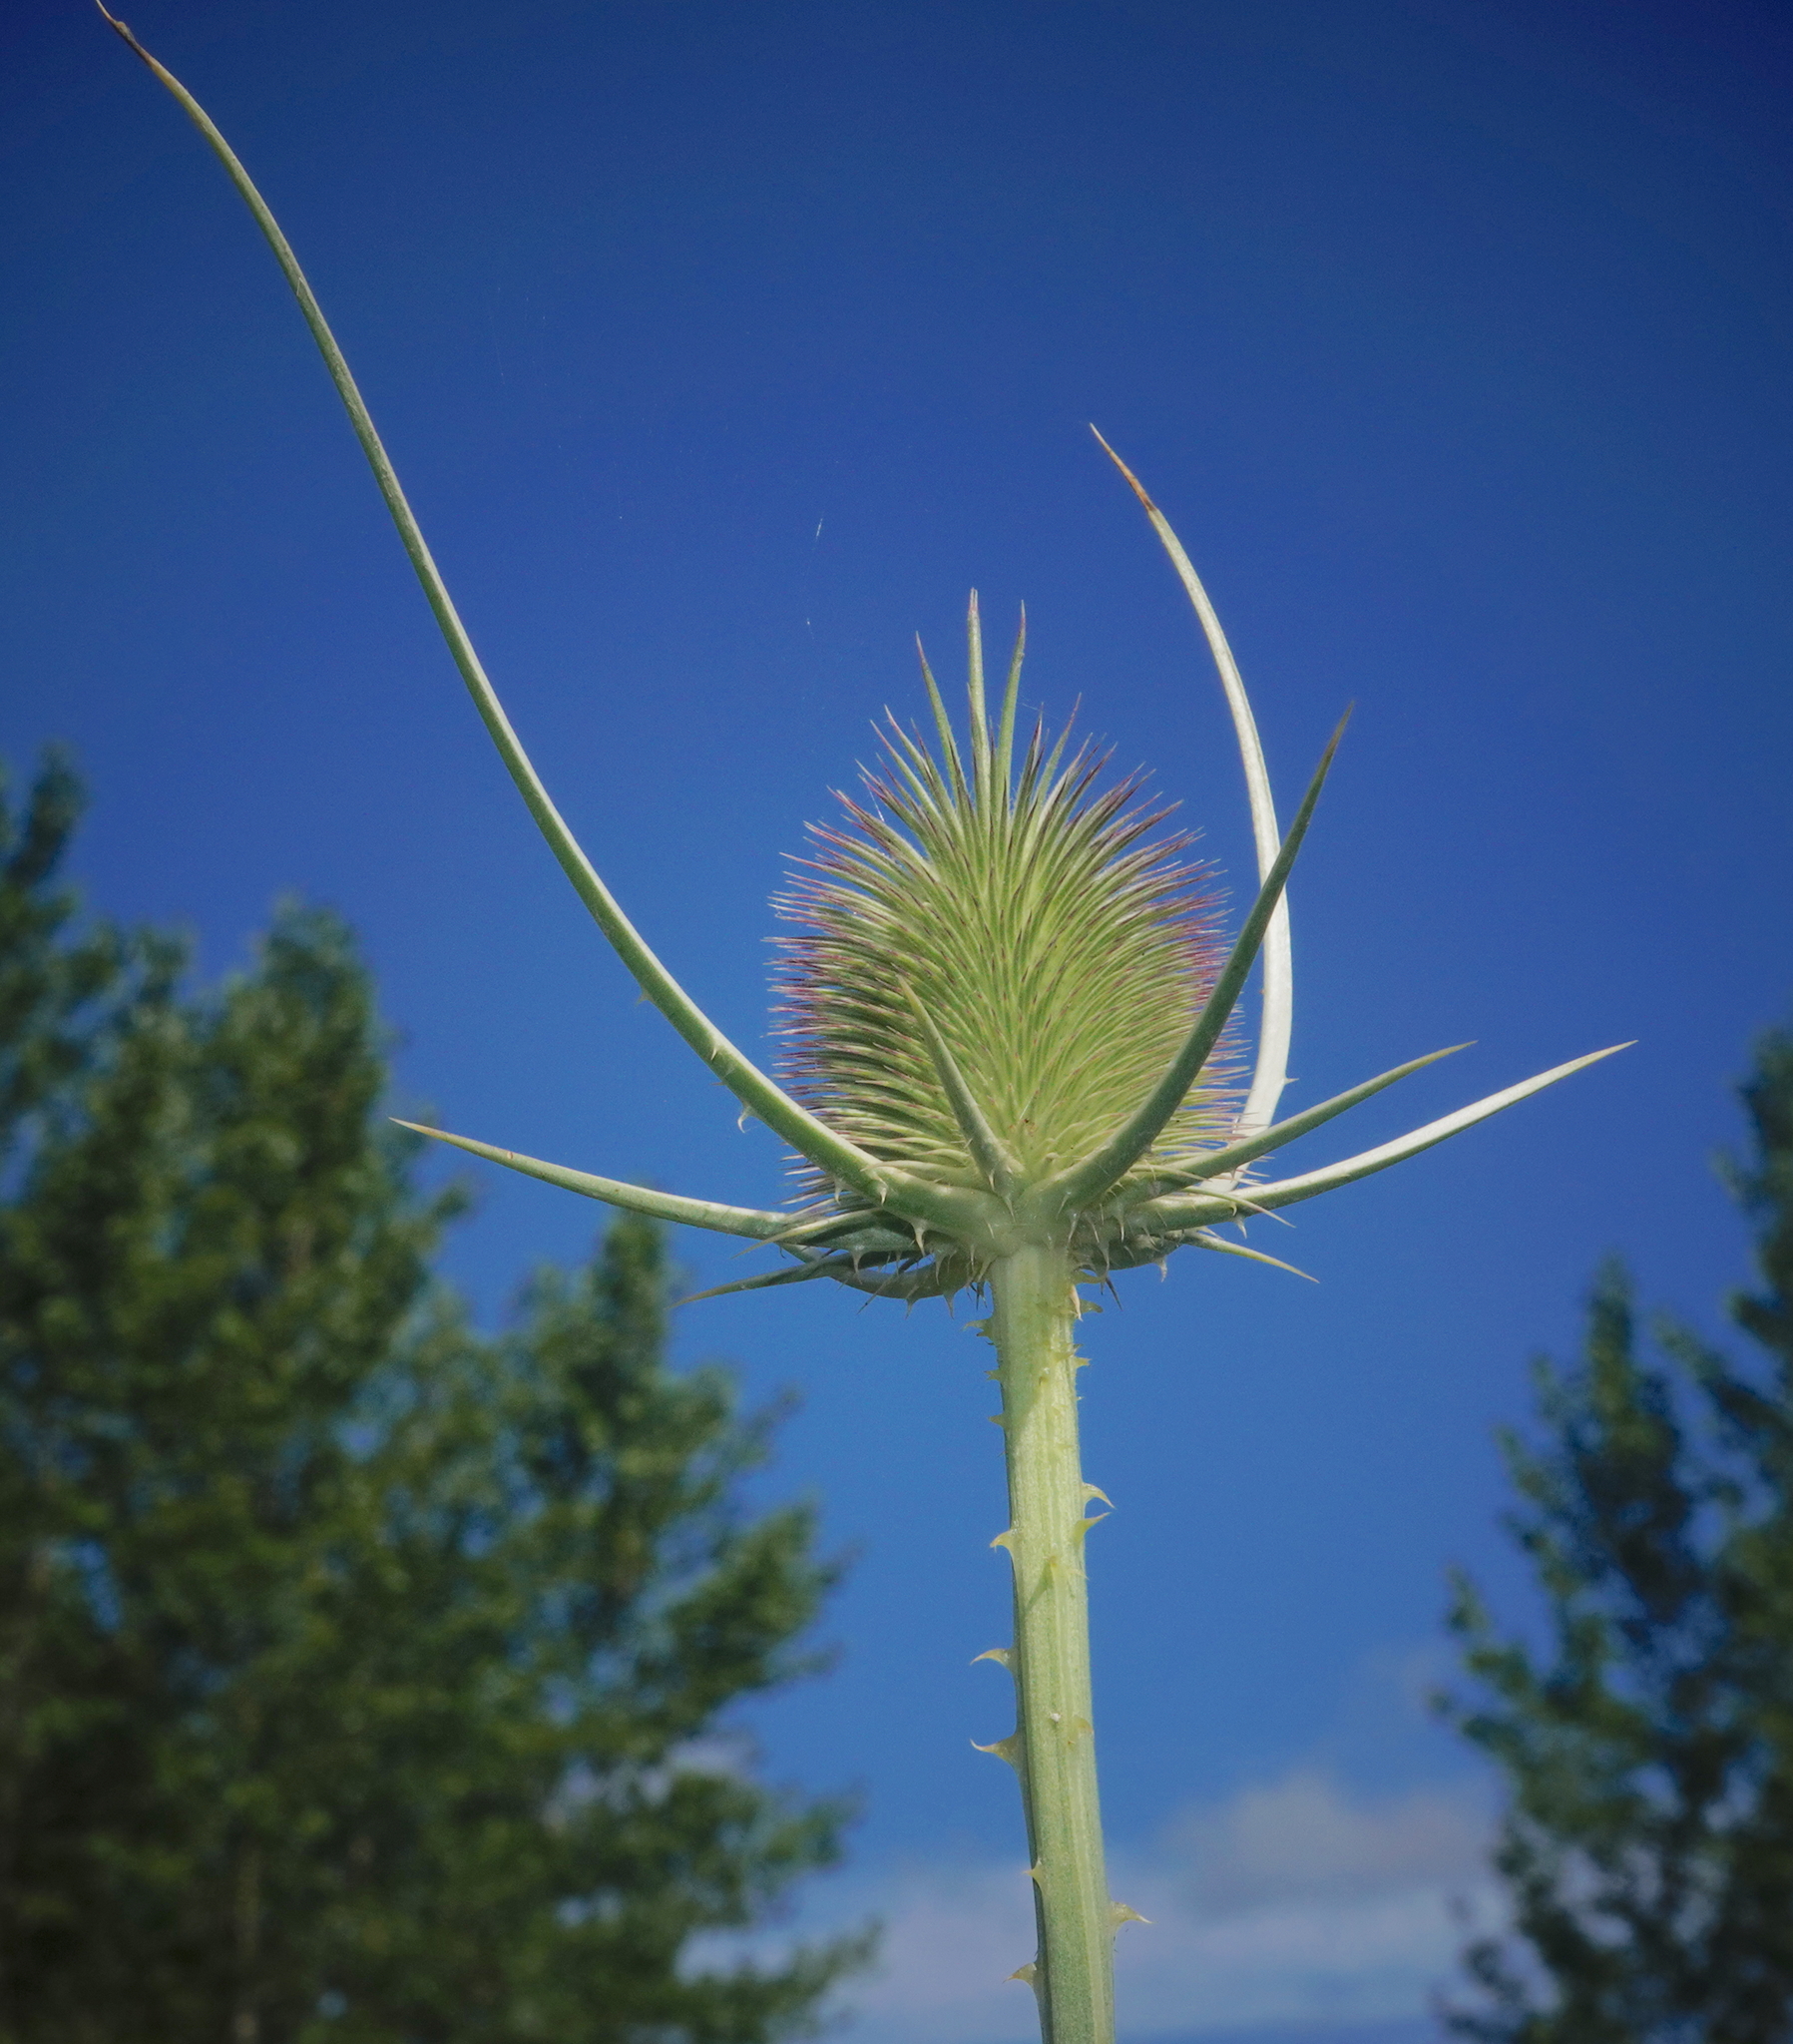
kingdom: Plantae
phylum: Tracheophyta
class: Magnoliopsida
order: Dipsacales
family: Caprifoliaceae
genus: Dipsacus
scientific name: Dipsacus comosus
